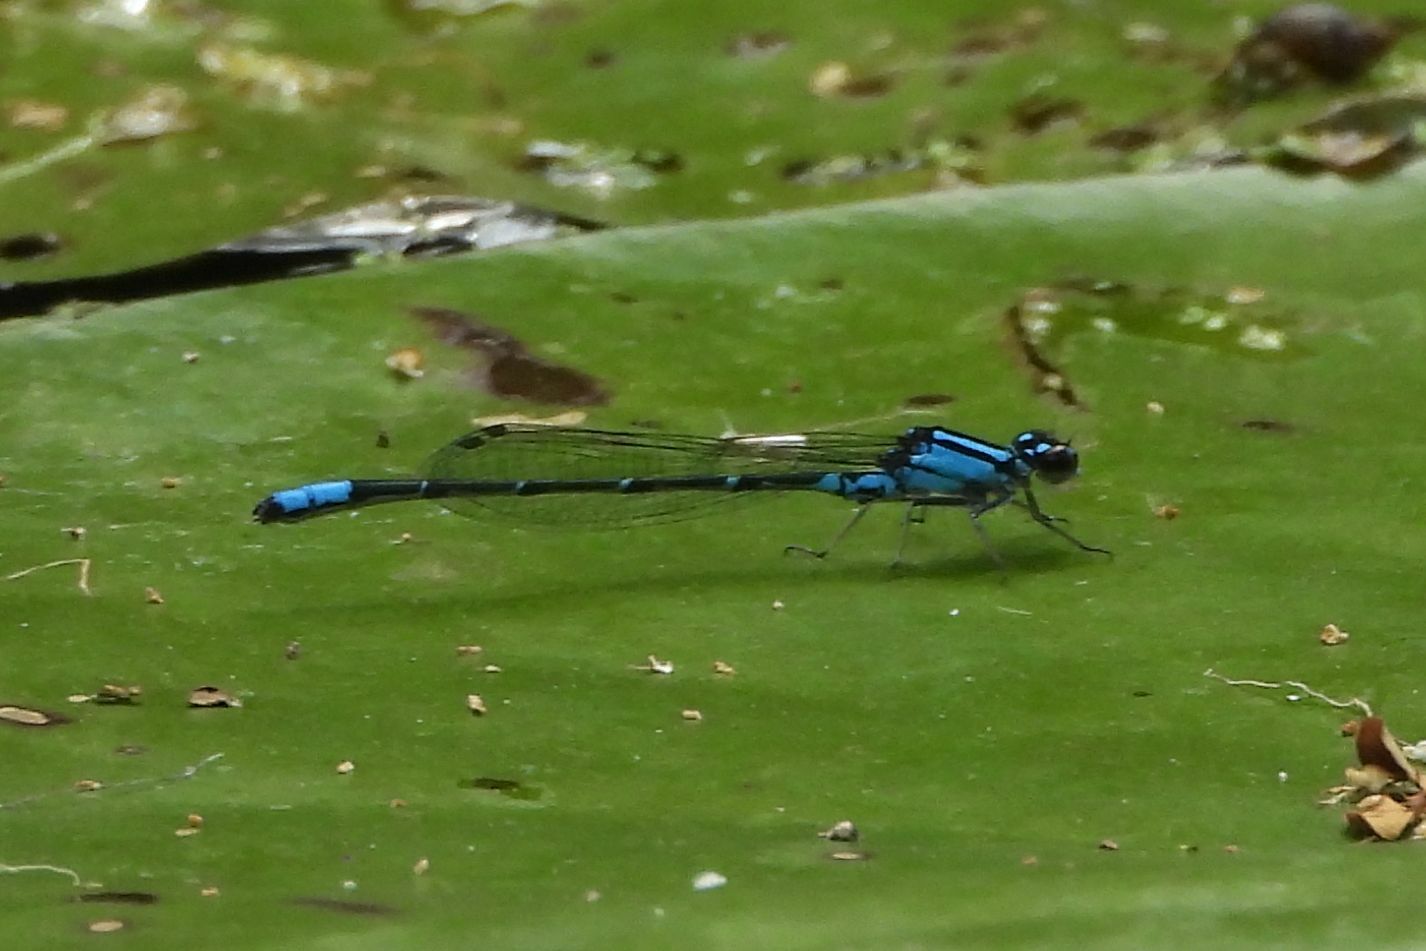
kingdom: Animalia
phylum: Arthropoda
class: Insecta
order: Odonata
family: Coenagrionidae
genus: Enallagma
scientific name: Enallagma geminatum
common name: Skimming bluet
